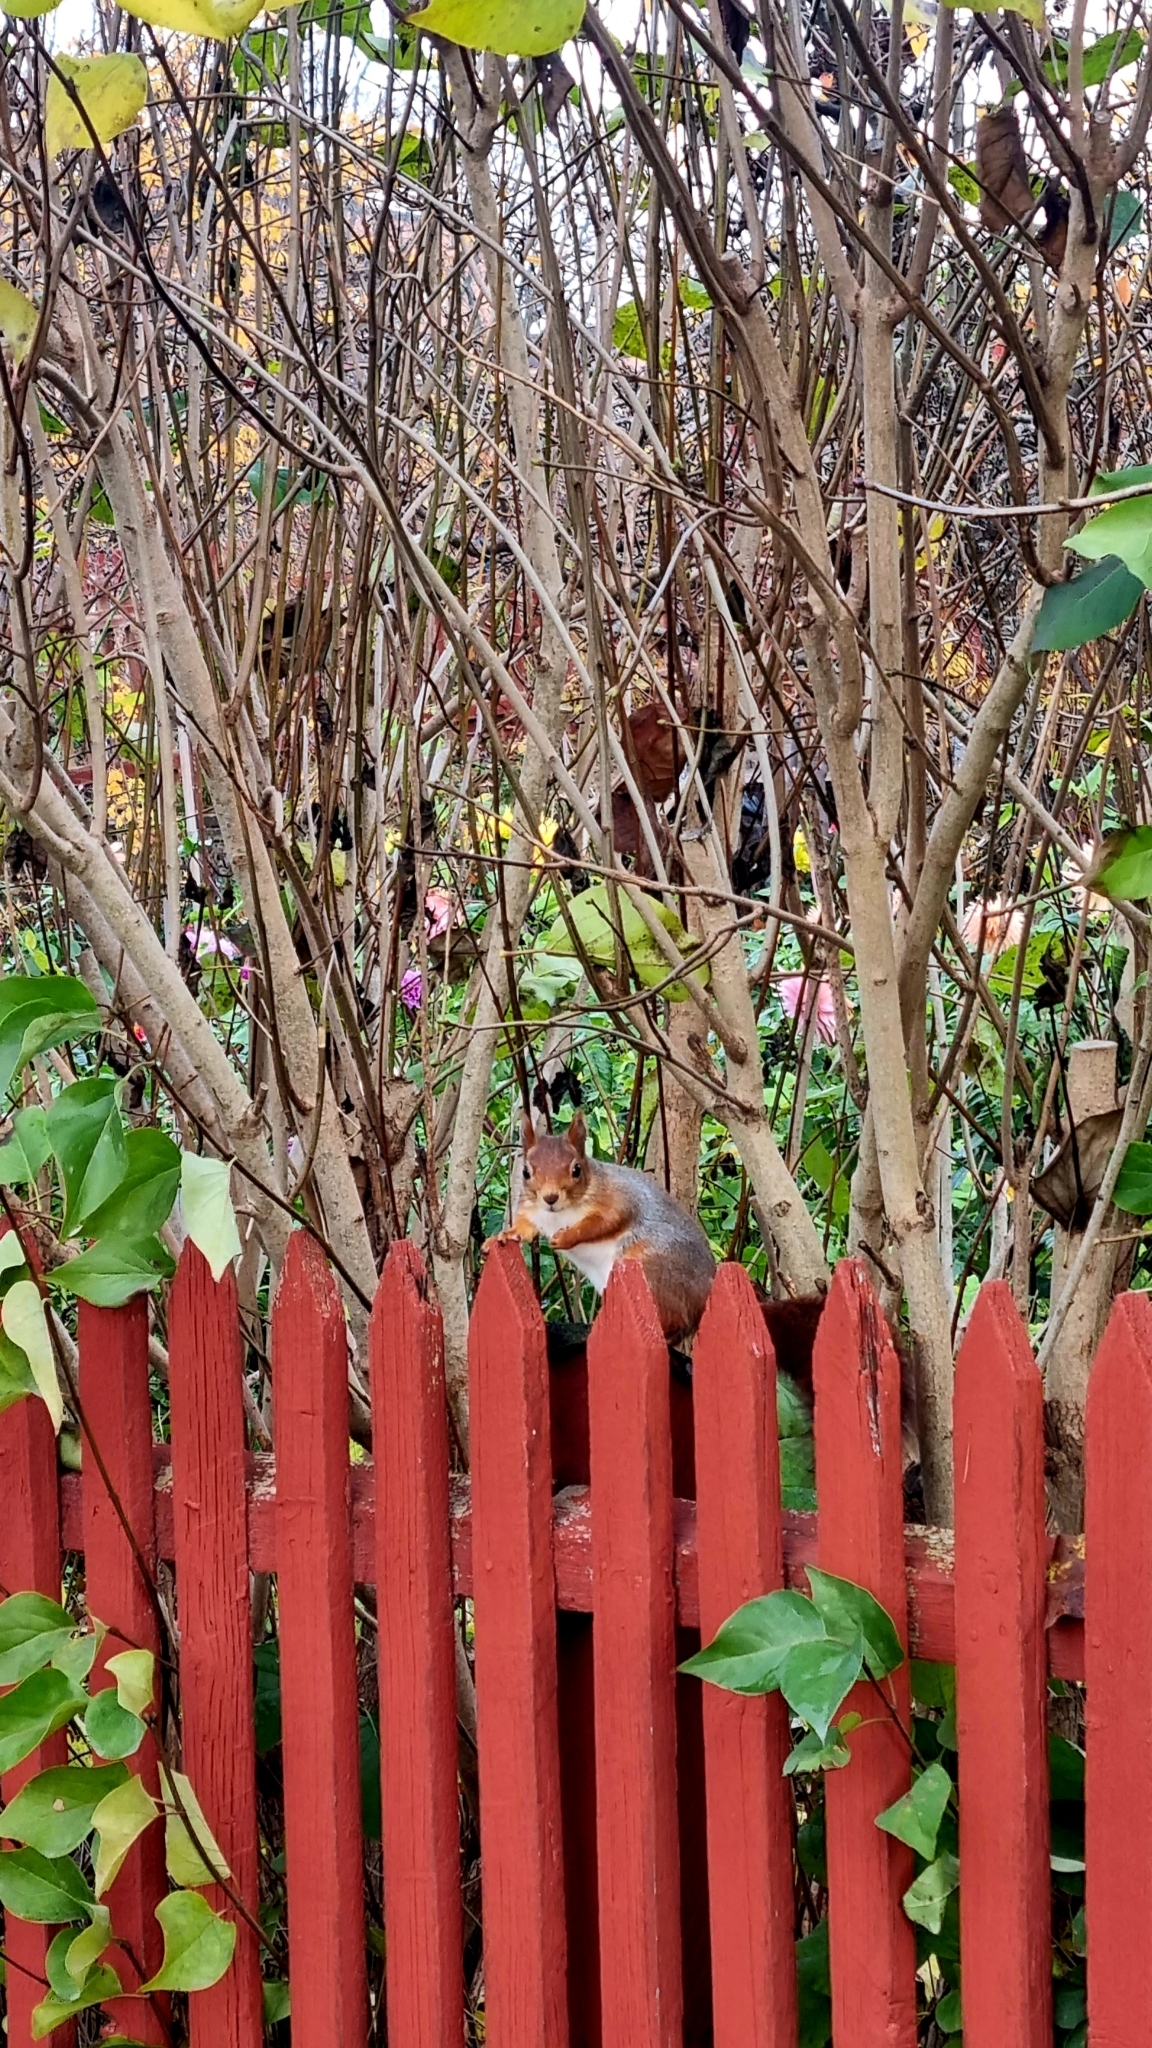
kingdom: Animalia
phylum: Chordata
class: Mammalia
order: Rodentia
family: Sciuridae
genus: Sciurus
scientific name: Sciurus vulgaris
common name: Eurasian red squirrel
